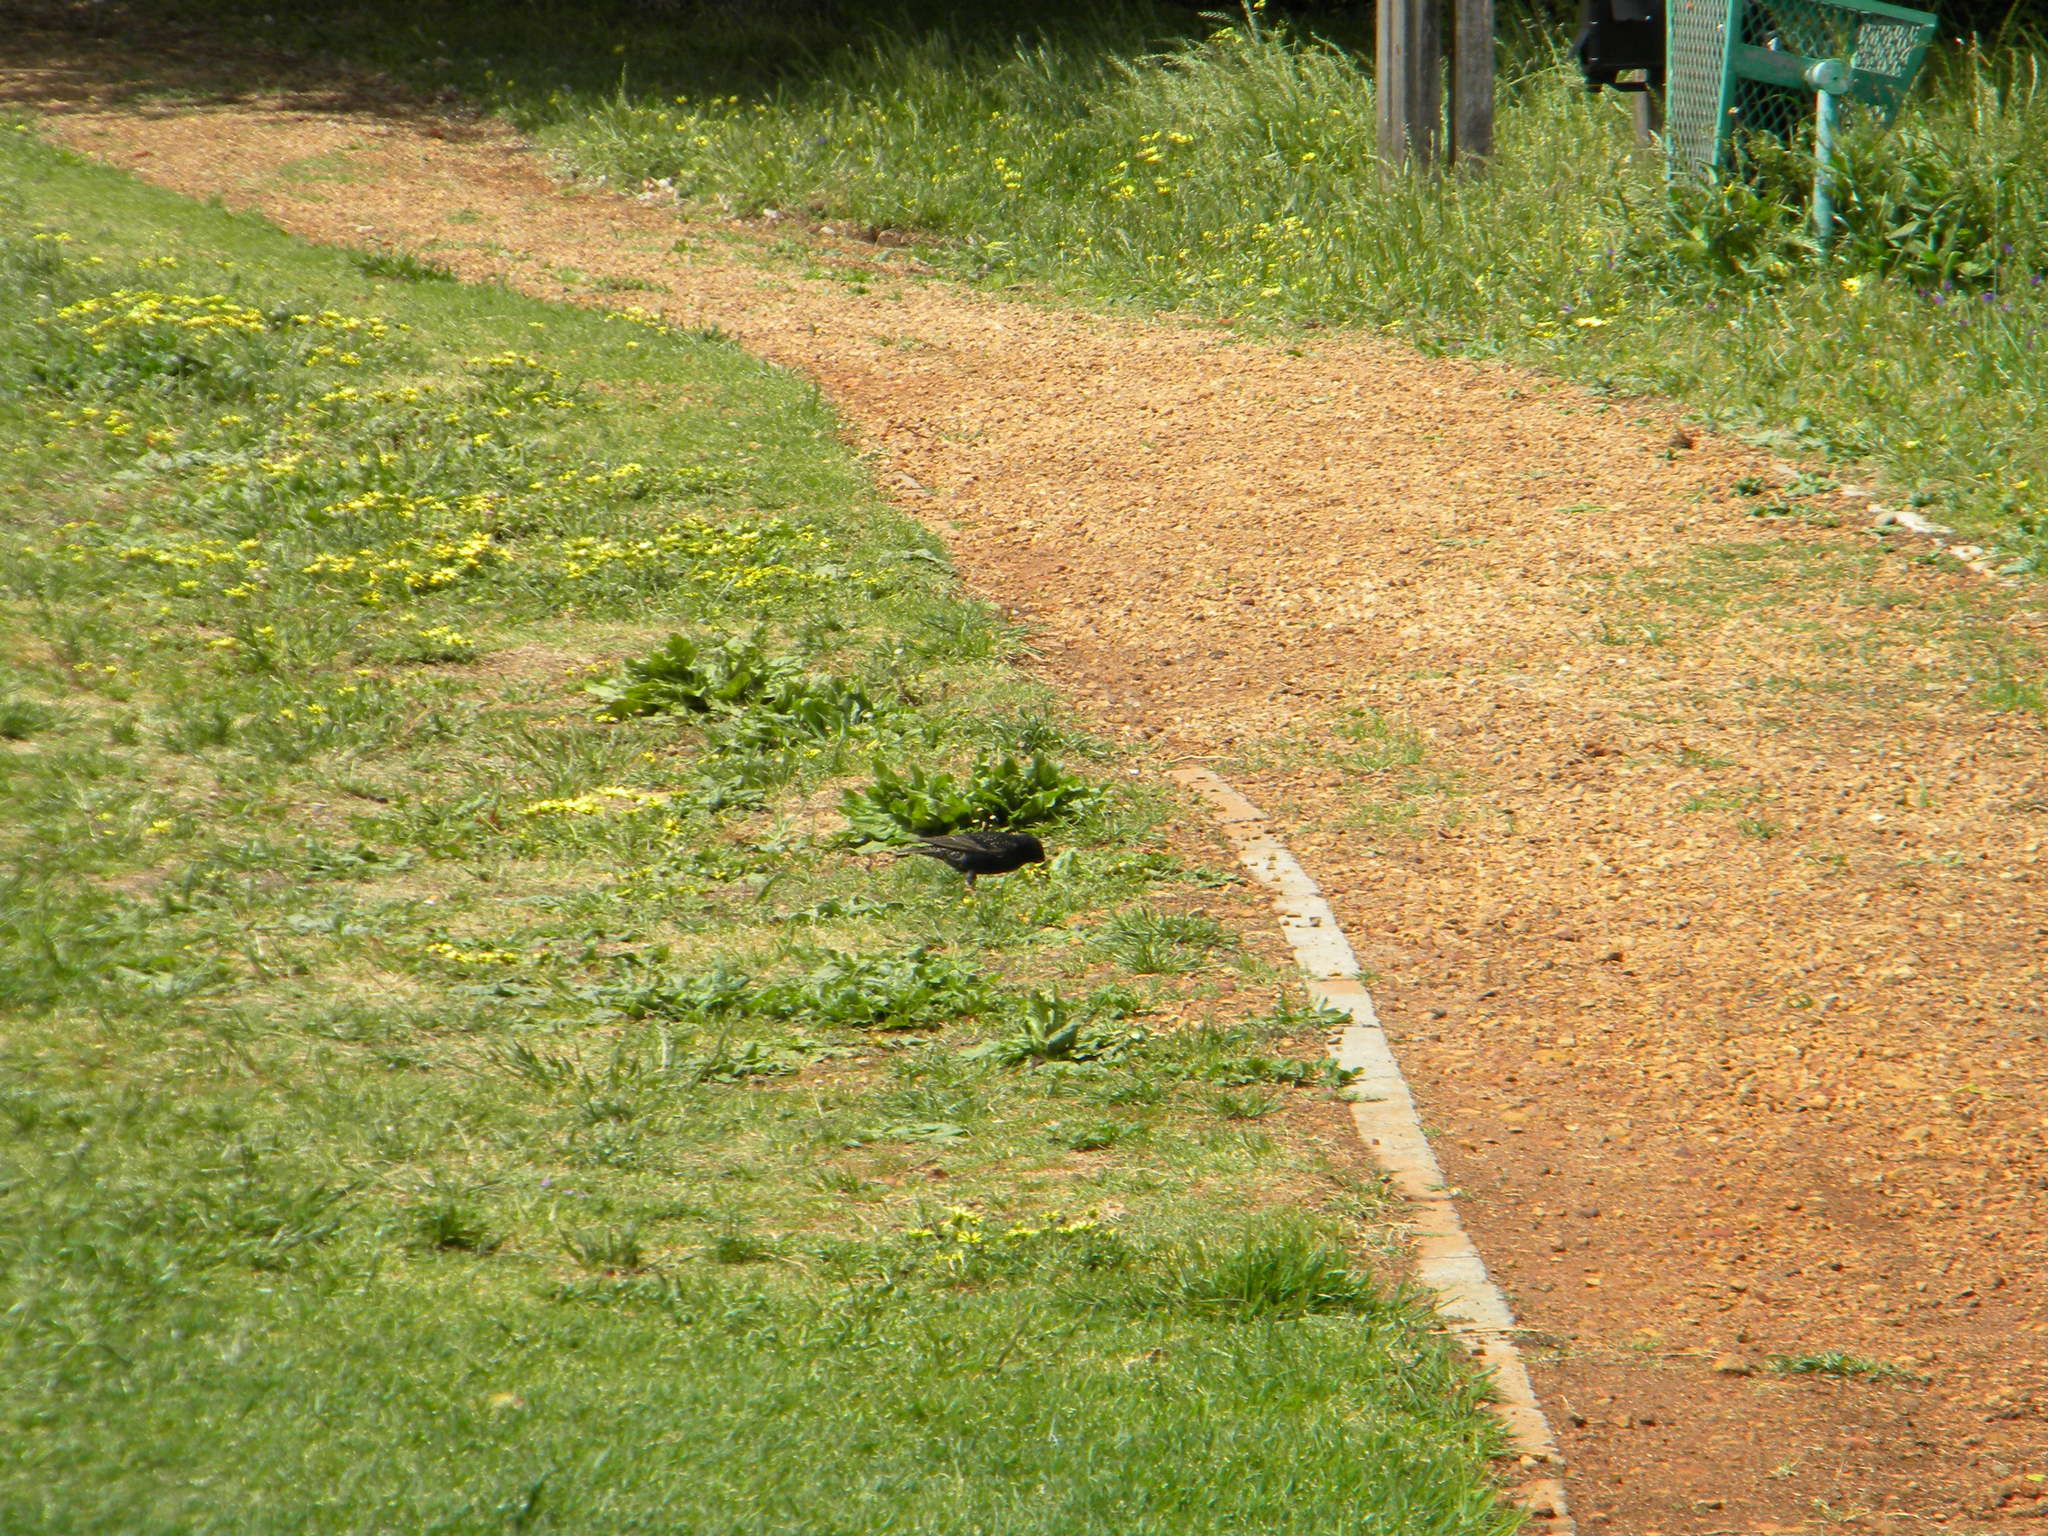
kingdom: Animalia
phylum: Chordata
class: Aves
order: Passeriformes
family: Sturnidae
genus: Sturnus
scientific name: Sturnus vulgaris
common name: Common starling
